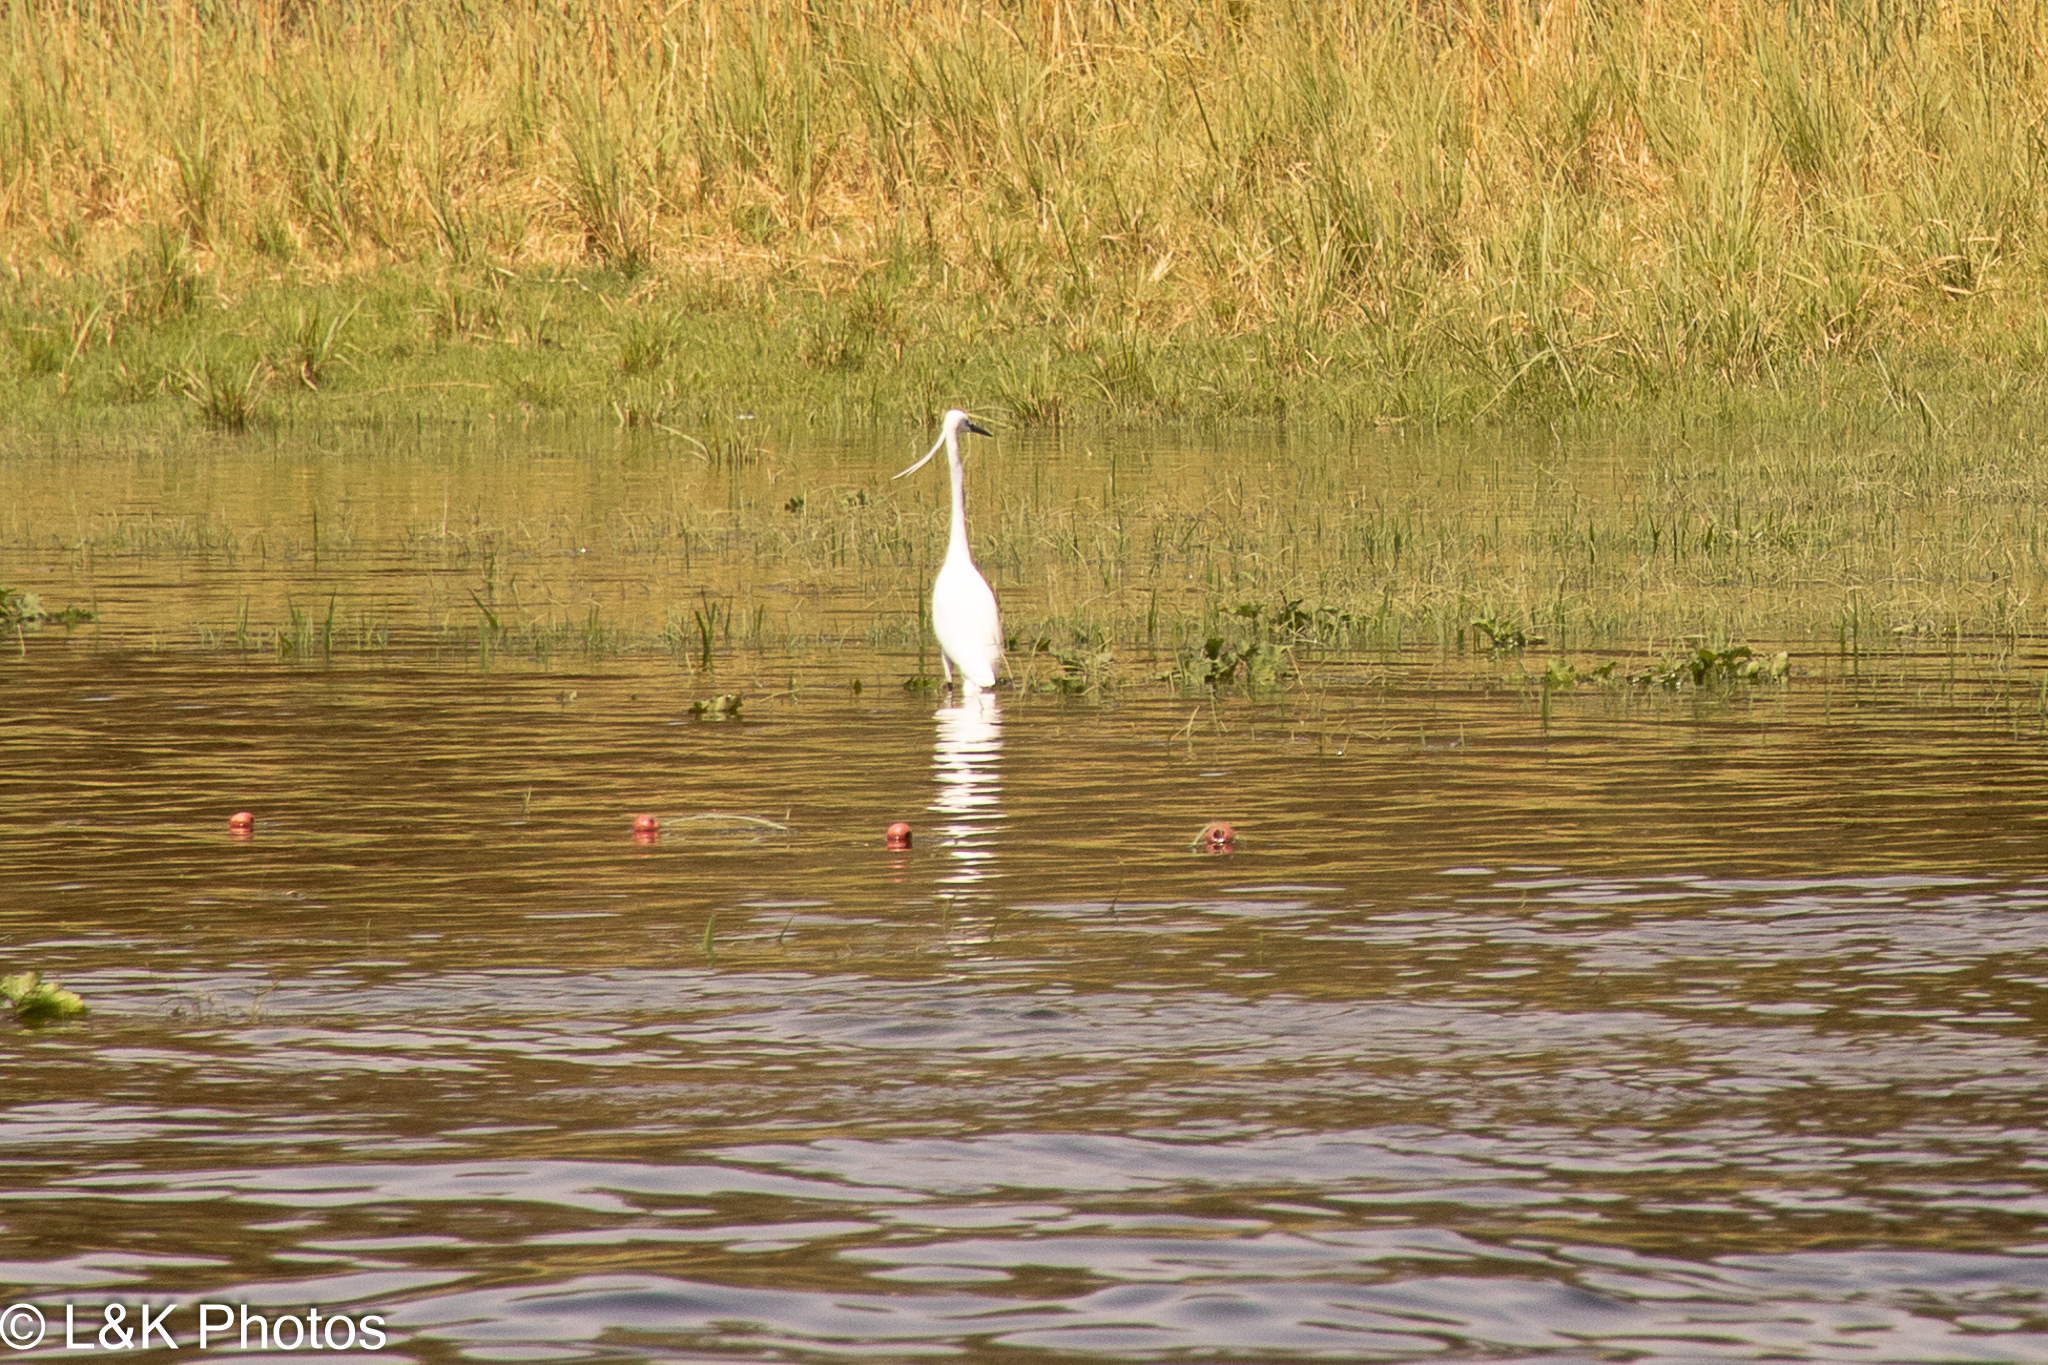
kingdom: Animalia
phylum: Chordata
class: Aves
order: Pelecaniformes
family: Ardeidae
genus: Egretta
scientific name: Egretta garzetta
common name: Little egret
